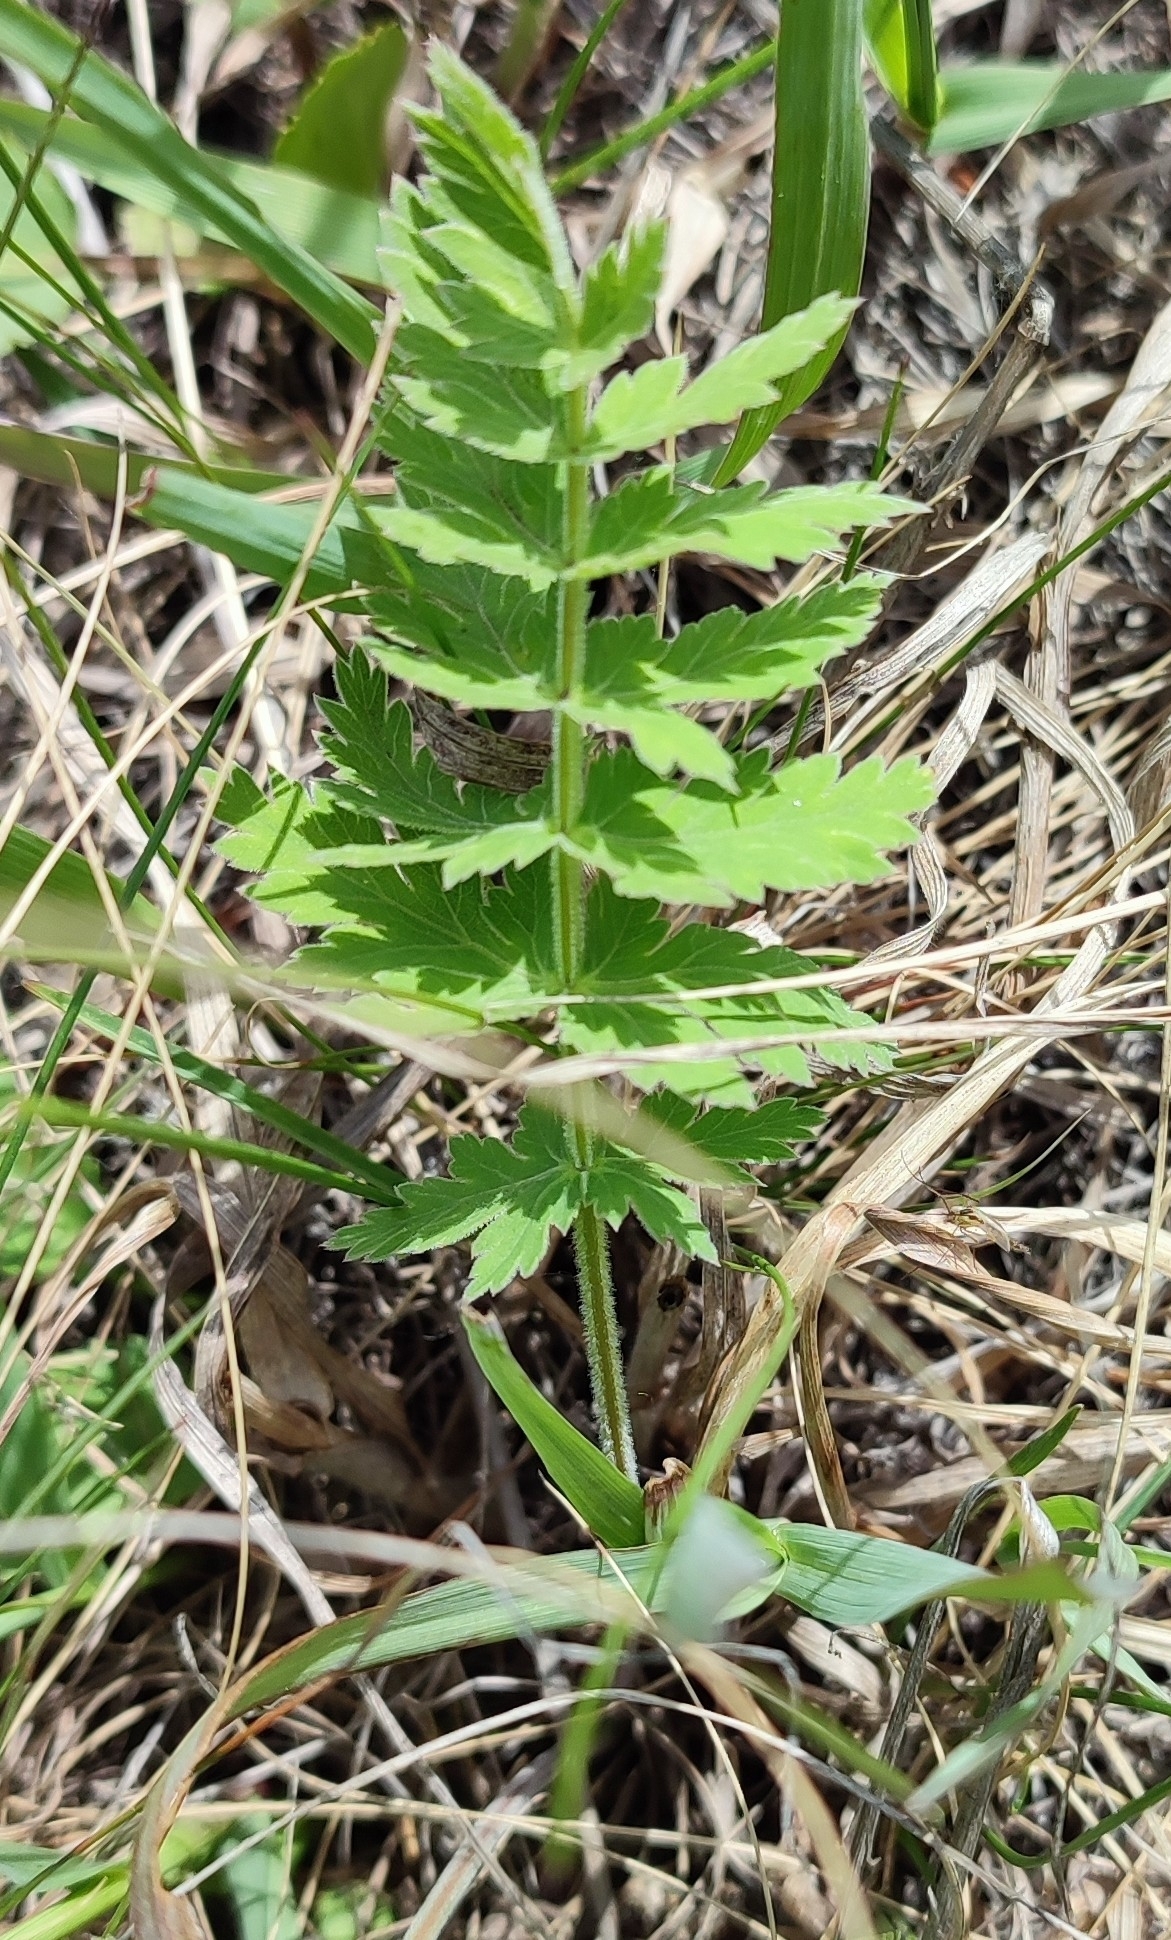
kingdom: Plantae
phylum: Tracheophyta
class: Magnoliopsida
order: Apiales
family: Apiaceae
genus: Seseli
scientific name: Seseli libanotis
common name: Mooncarrot
